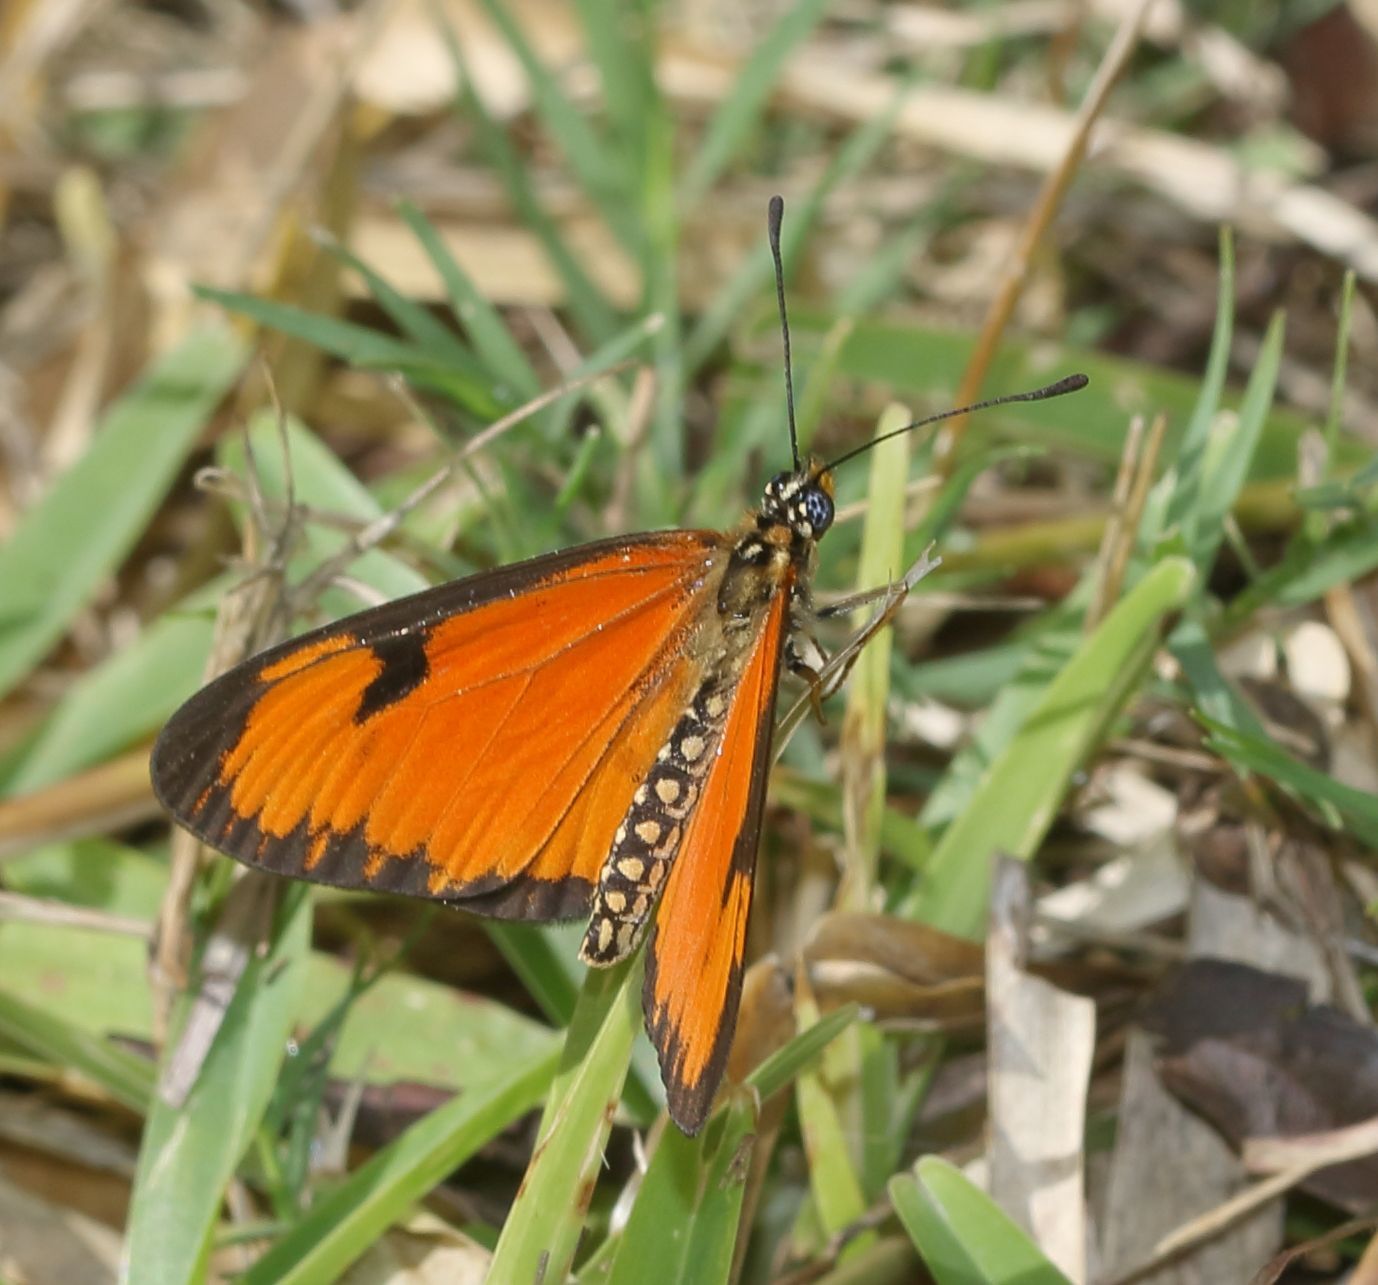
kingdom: Animalia
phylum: Arthropoda
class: Insecta
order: Lepidoptera
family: Nymphalidae
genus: Acraea
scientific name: Acraea Telchinia serena
